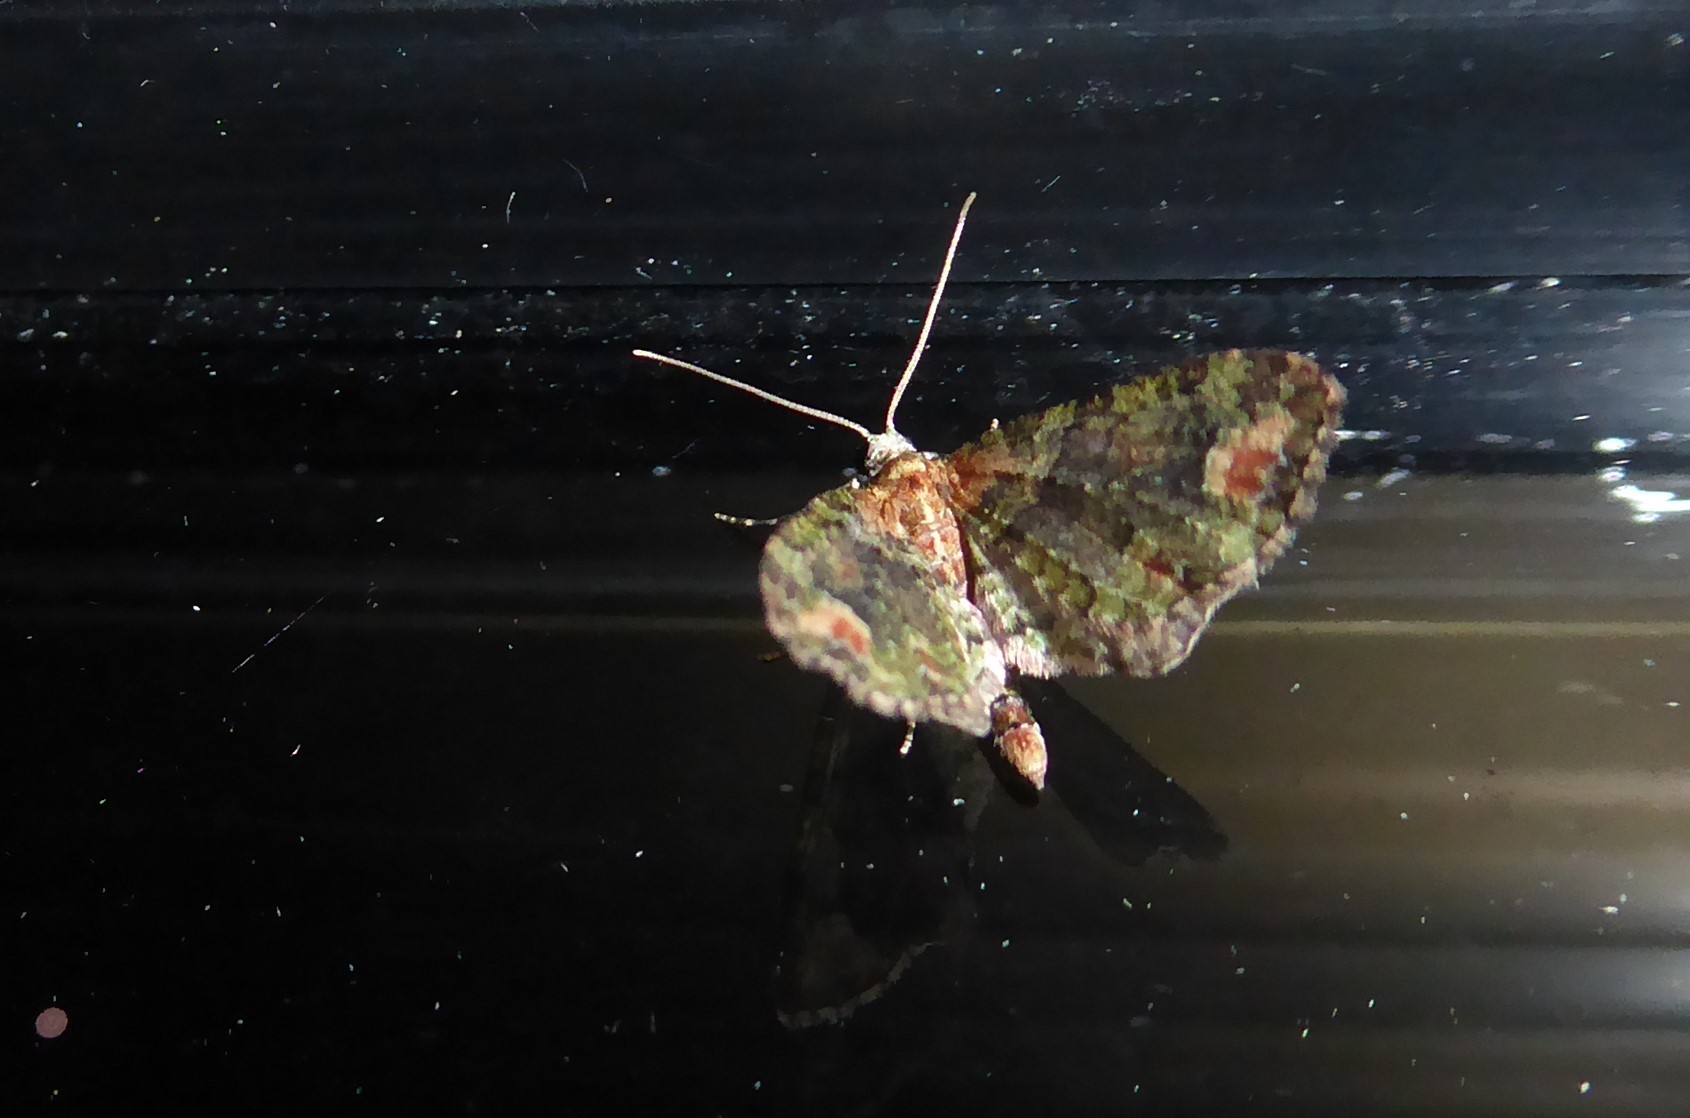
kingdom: Animalia
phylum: Arthropoda
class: Insecta
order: Lepidoptera
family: Geometridae
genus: Idaea
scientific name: Idaea mutanda
